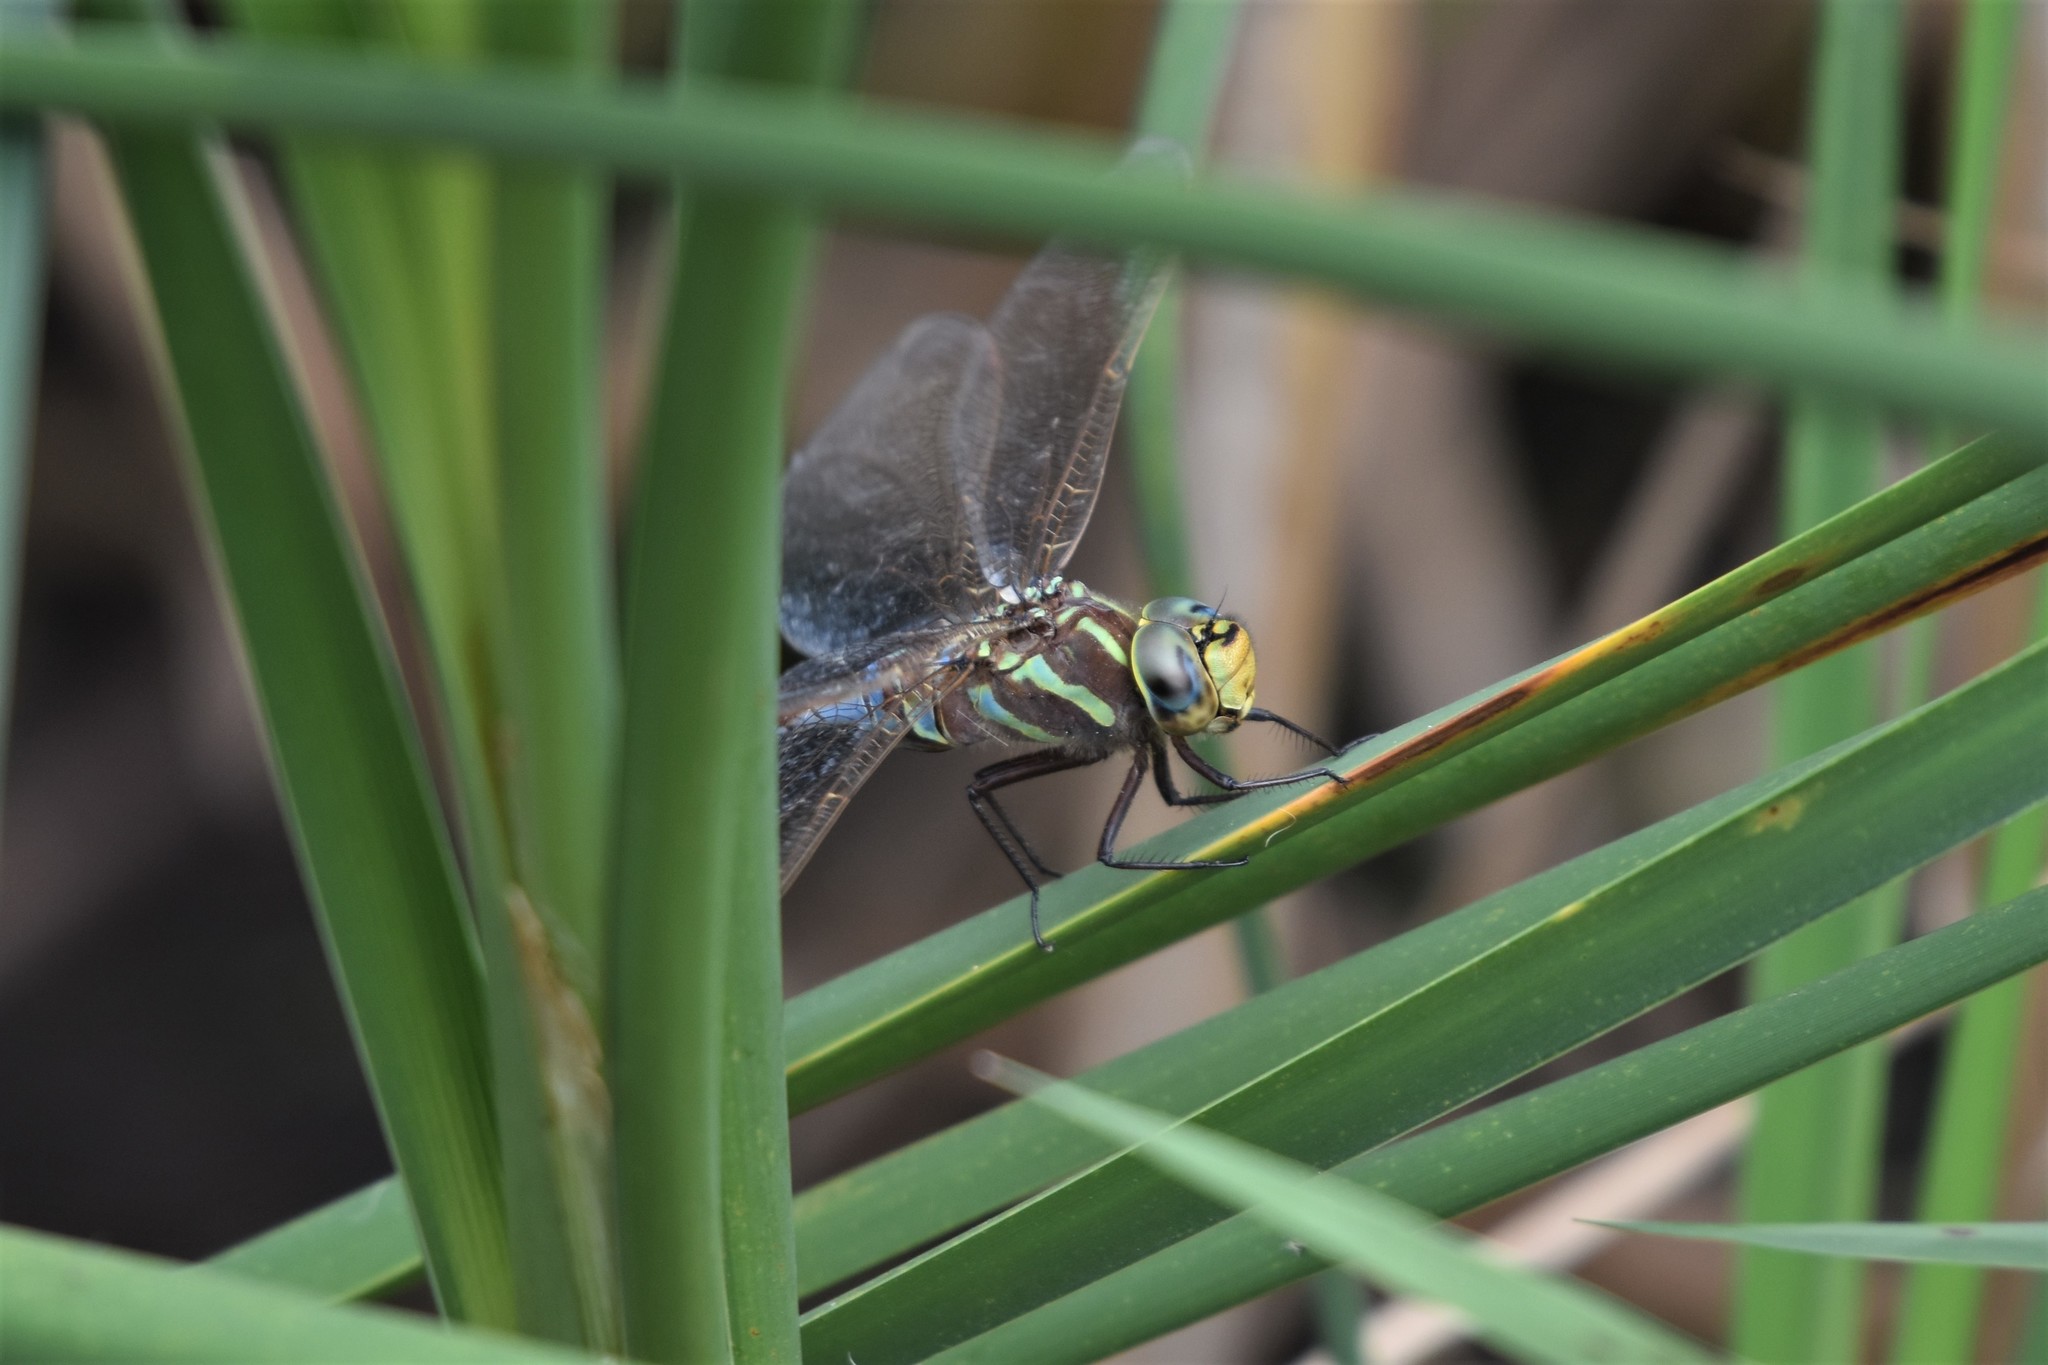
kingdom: Animalia
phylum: Arthropoda
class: Insecta
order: Odonata
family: Aeshnidae
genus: Aeshna
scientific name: Aeshna constricta
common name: Lance-tipped darner
